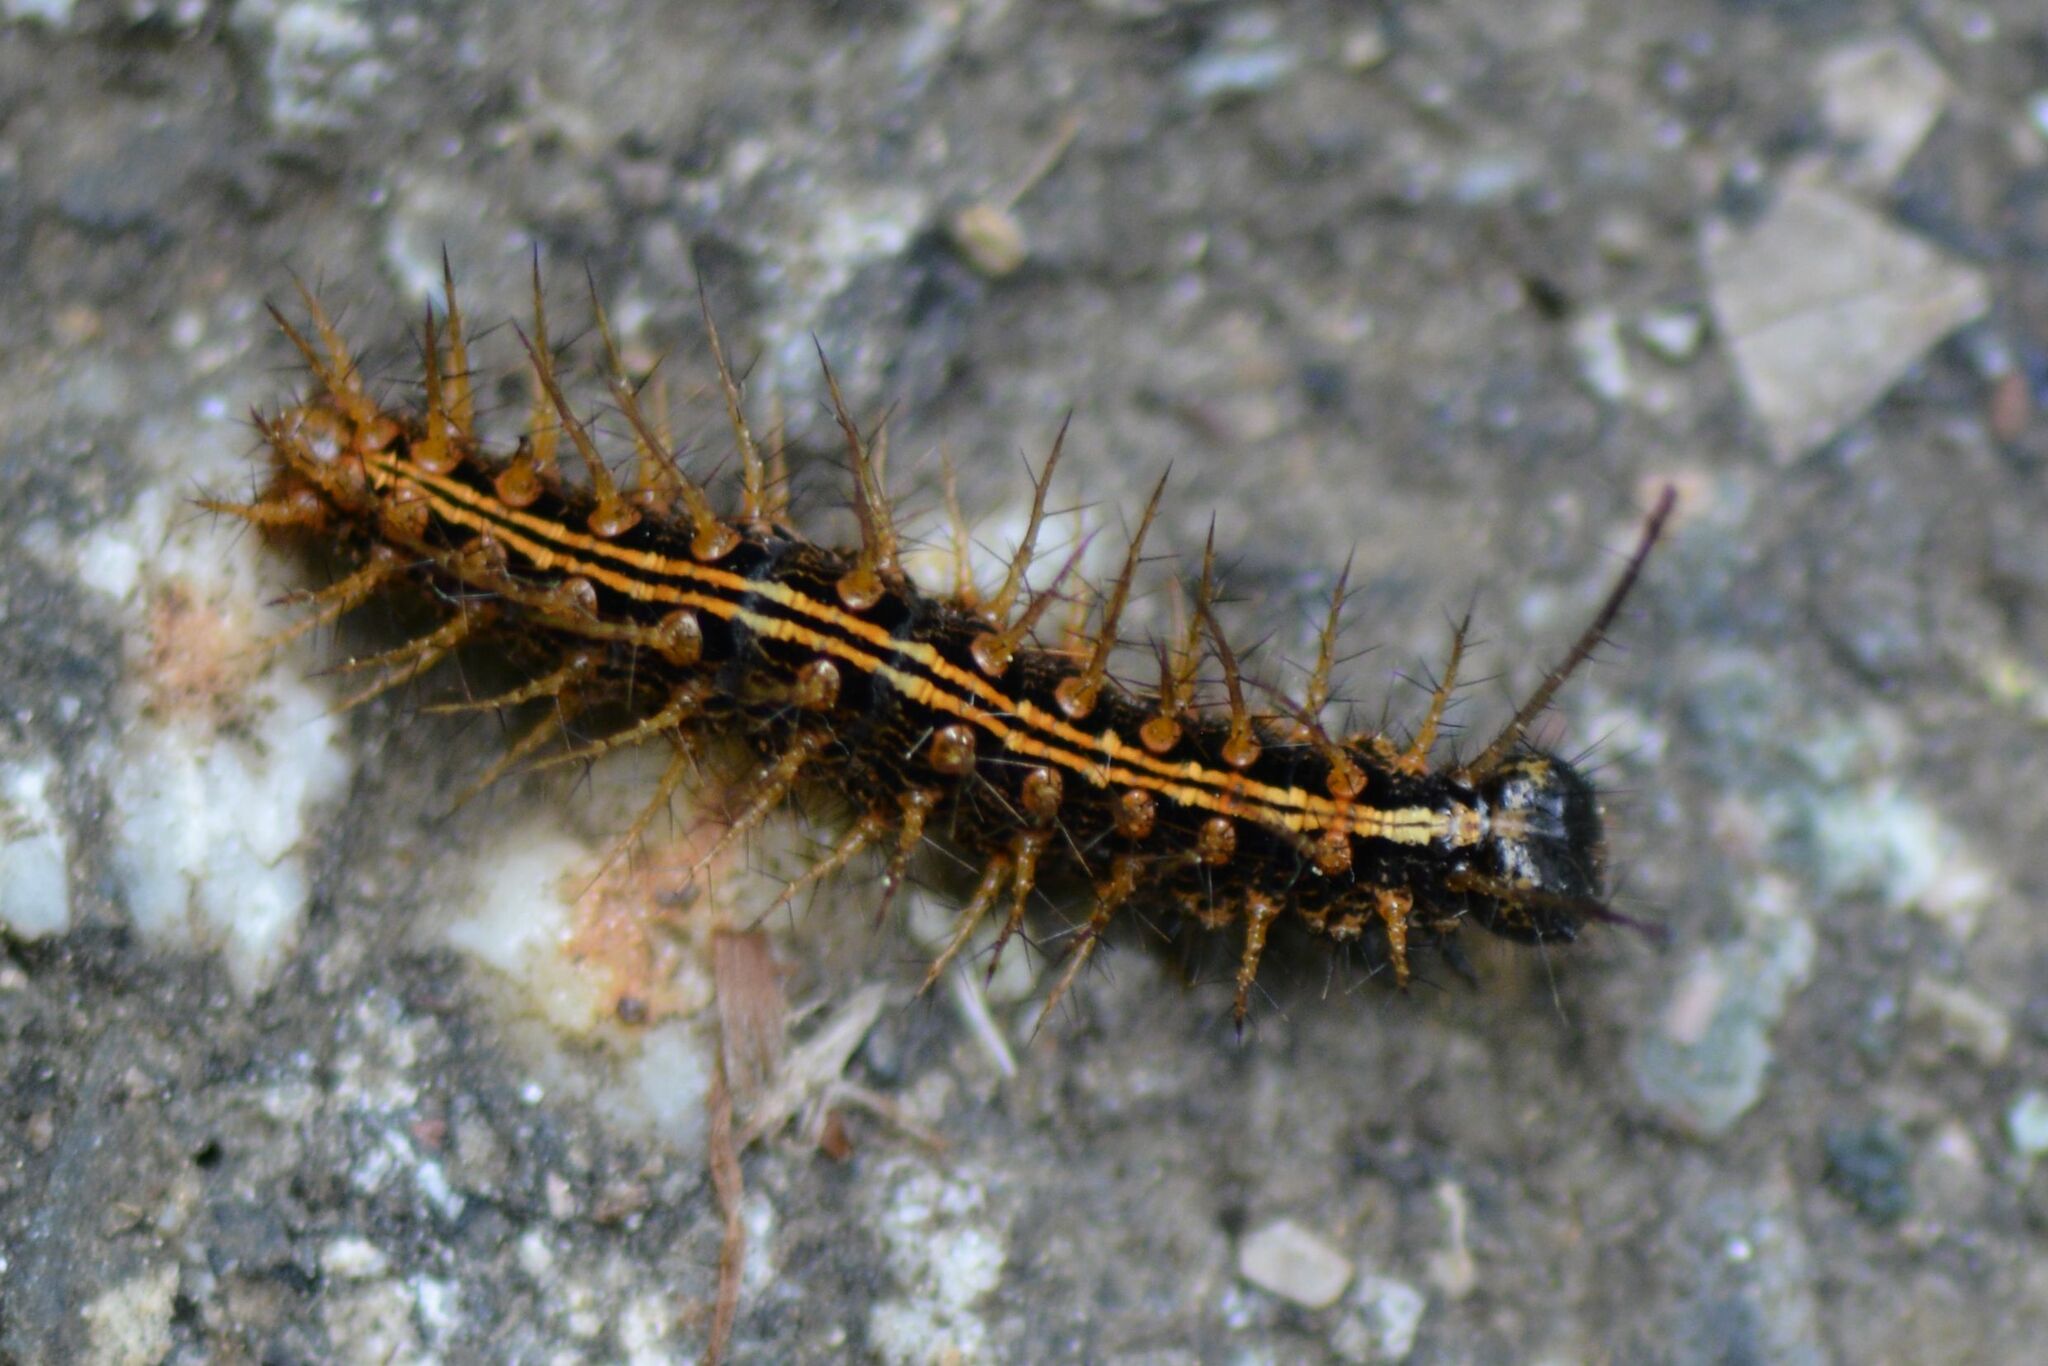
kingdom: Animalia
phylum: Arthropoda
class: Insecta
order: Lepidoptera
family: Nymphalidae
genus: Argynnis
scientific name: Argynnis paphia
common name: Silver-washed fritillary
